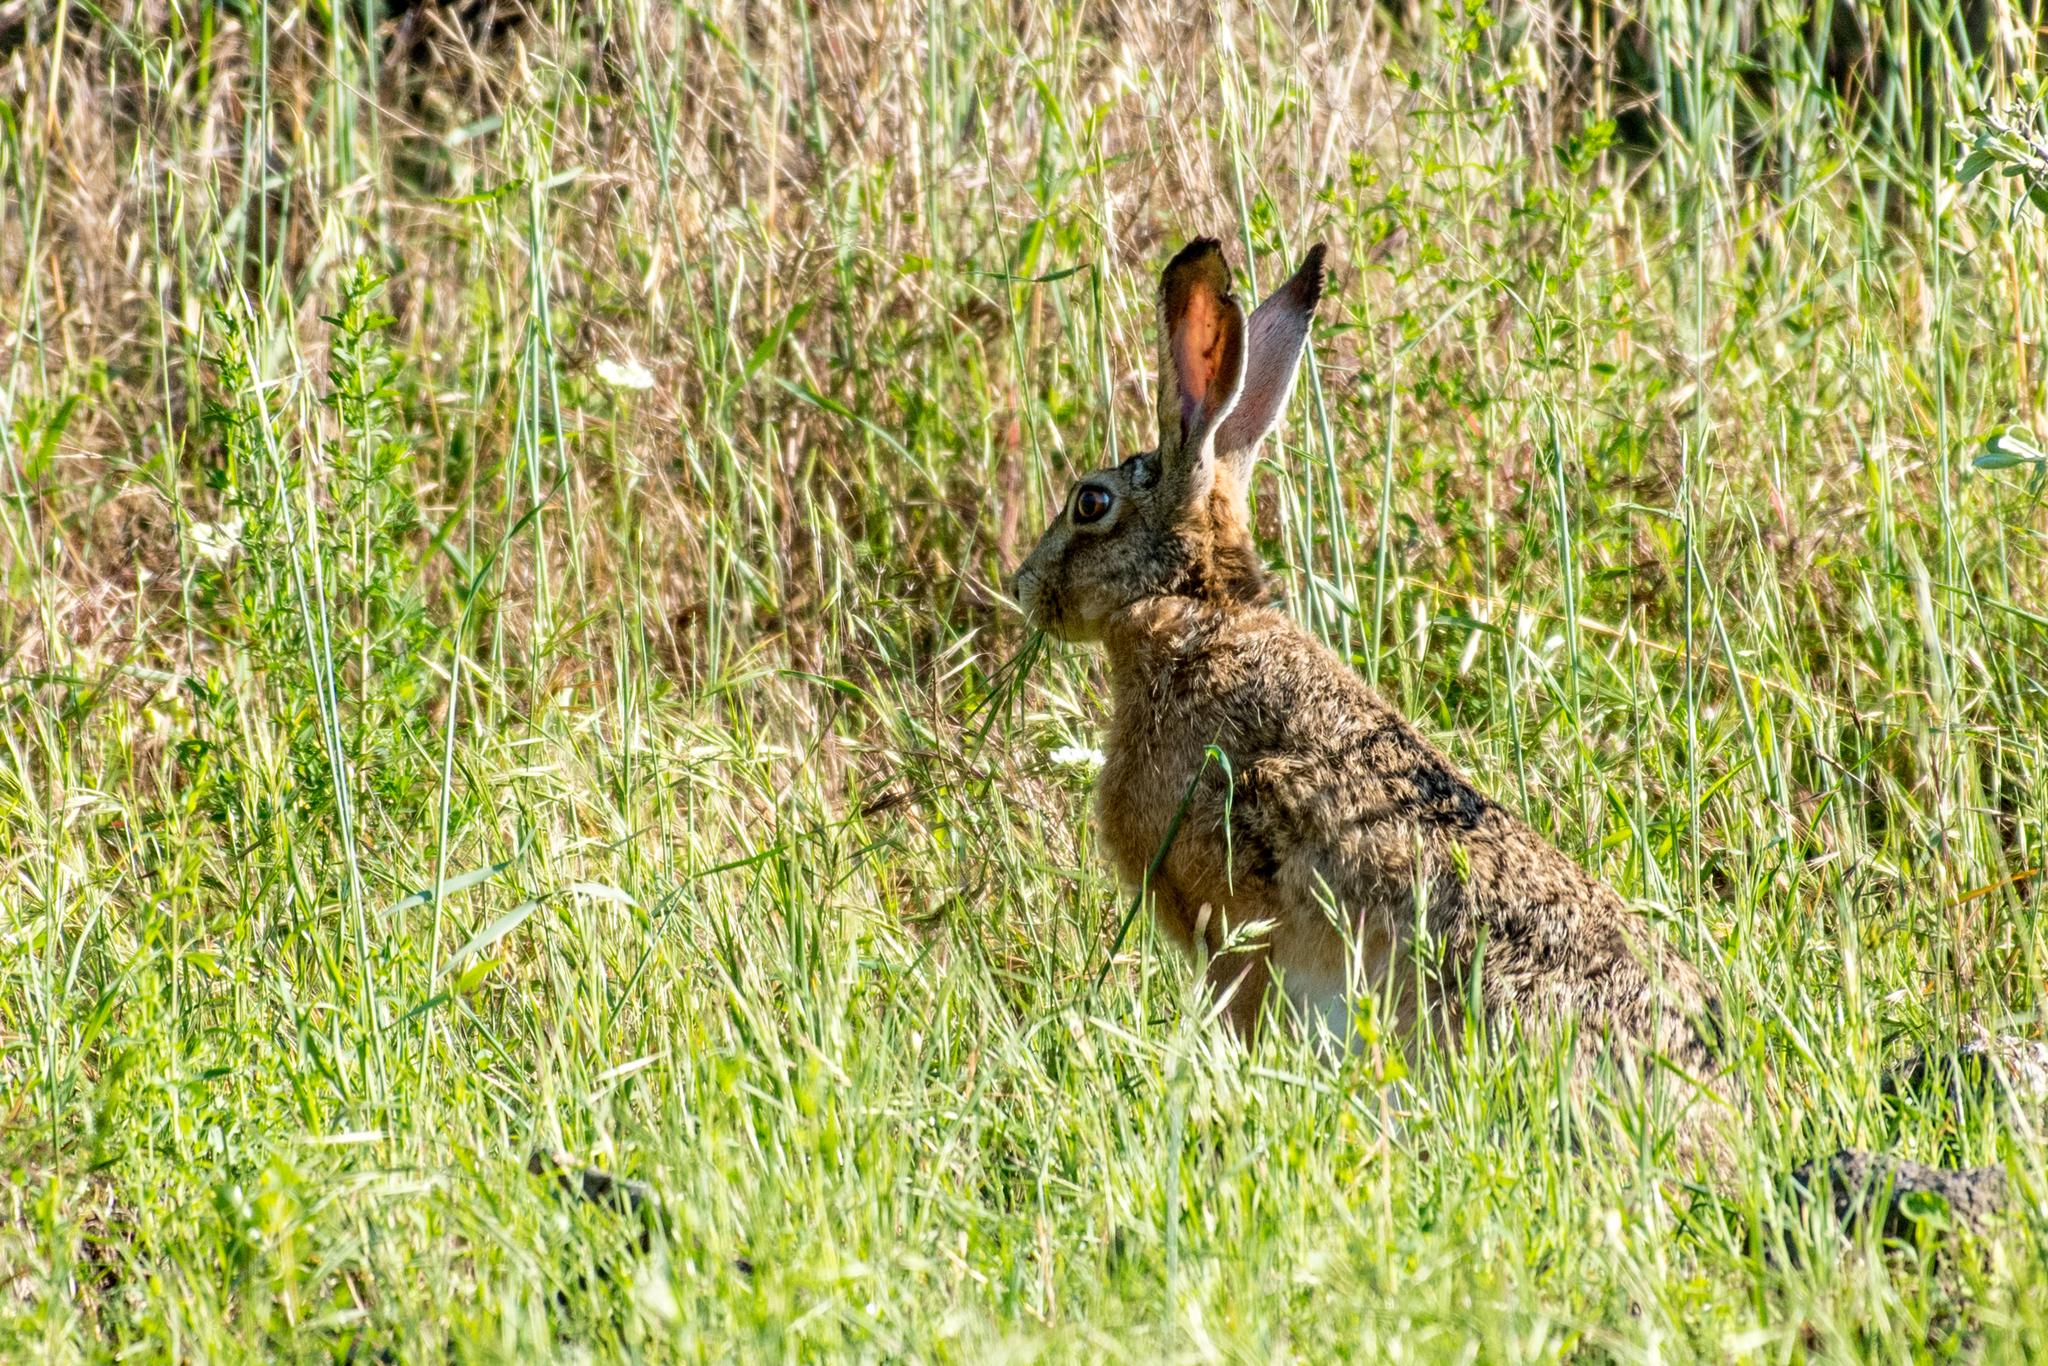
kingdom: Animalia
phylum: Chordata
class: Mammalia
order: Lagomorpha
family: Leporidae
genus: Lepus
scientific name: Lepus europaeus
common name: European hare
